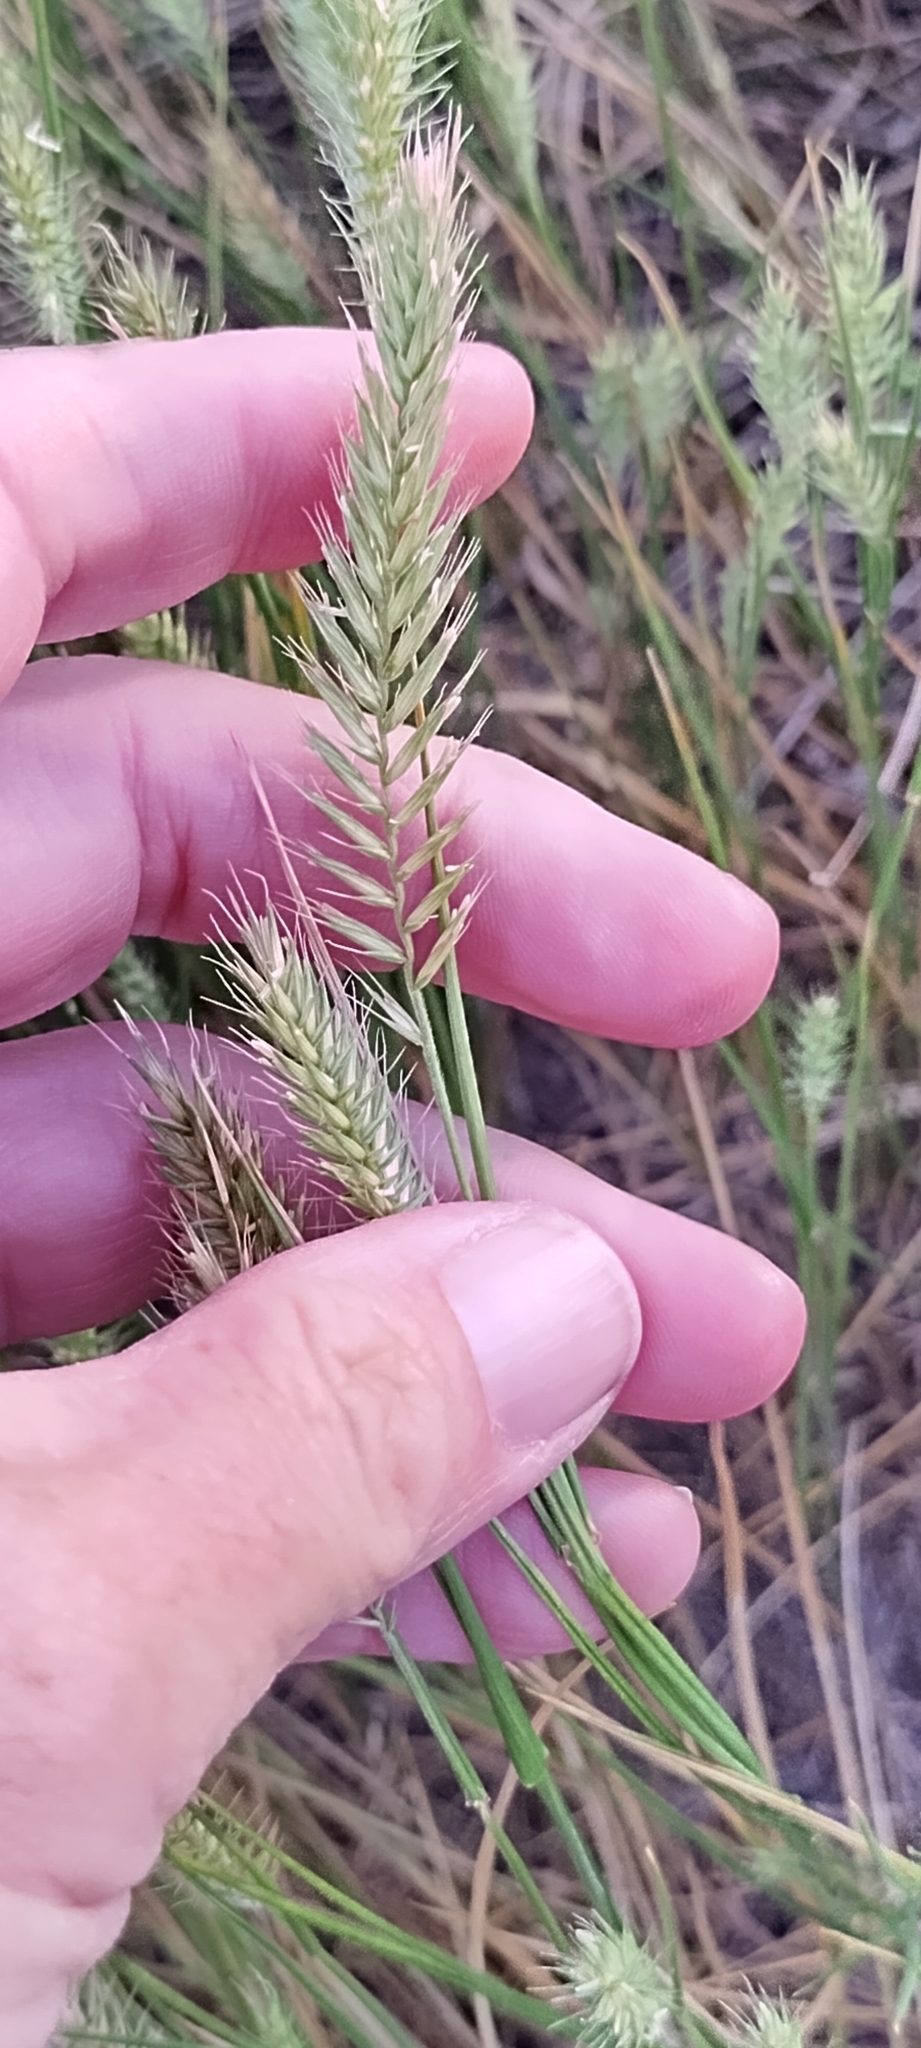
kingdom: Plantae
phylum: Tracheophyta
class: Liliopsida
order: Poales
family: Poaceae
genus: Agropyron
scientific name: Agropyron cristatum
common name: Crested wheatgrass
